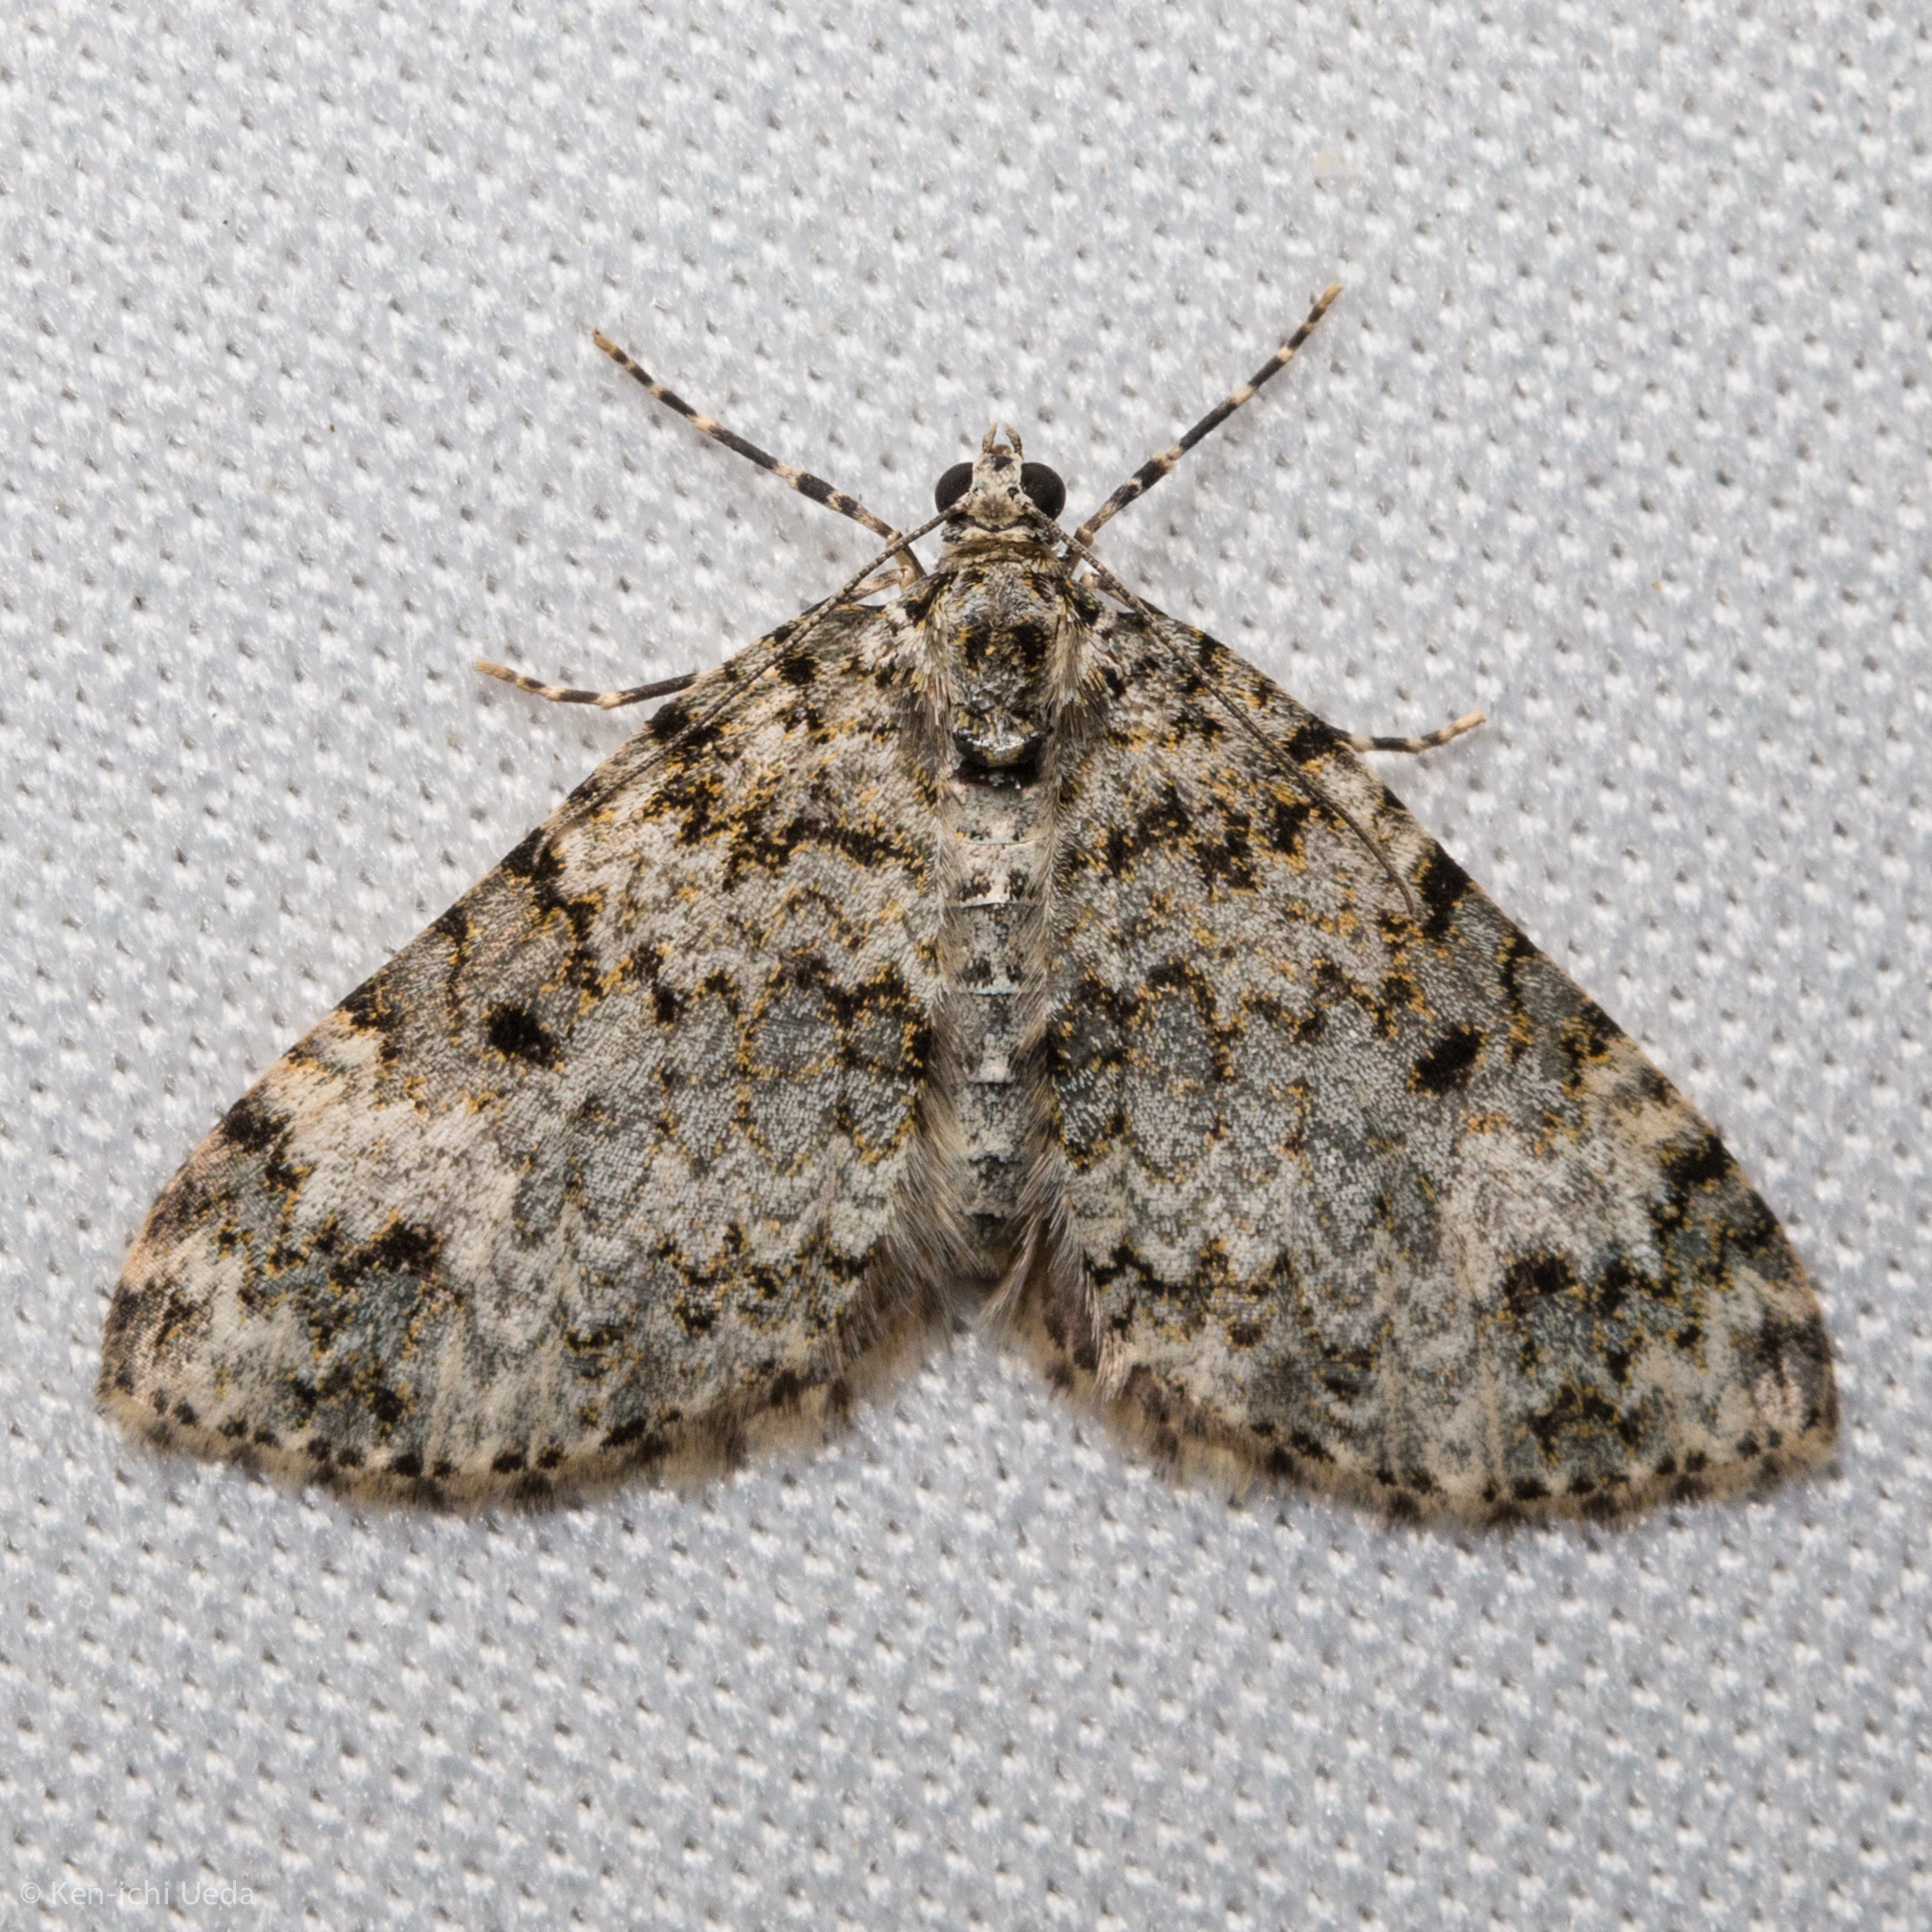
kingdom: Animalia
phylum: Arthropoda
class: Insecta
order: Lepidoptera
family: Geometridae
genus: Spargania
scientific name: Spargania magnoliata
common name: Double-banded carpet
